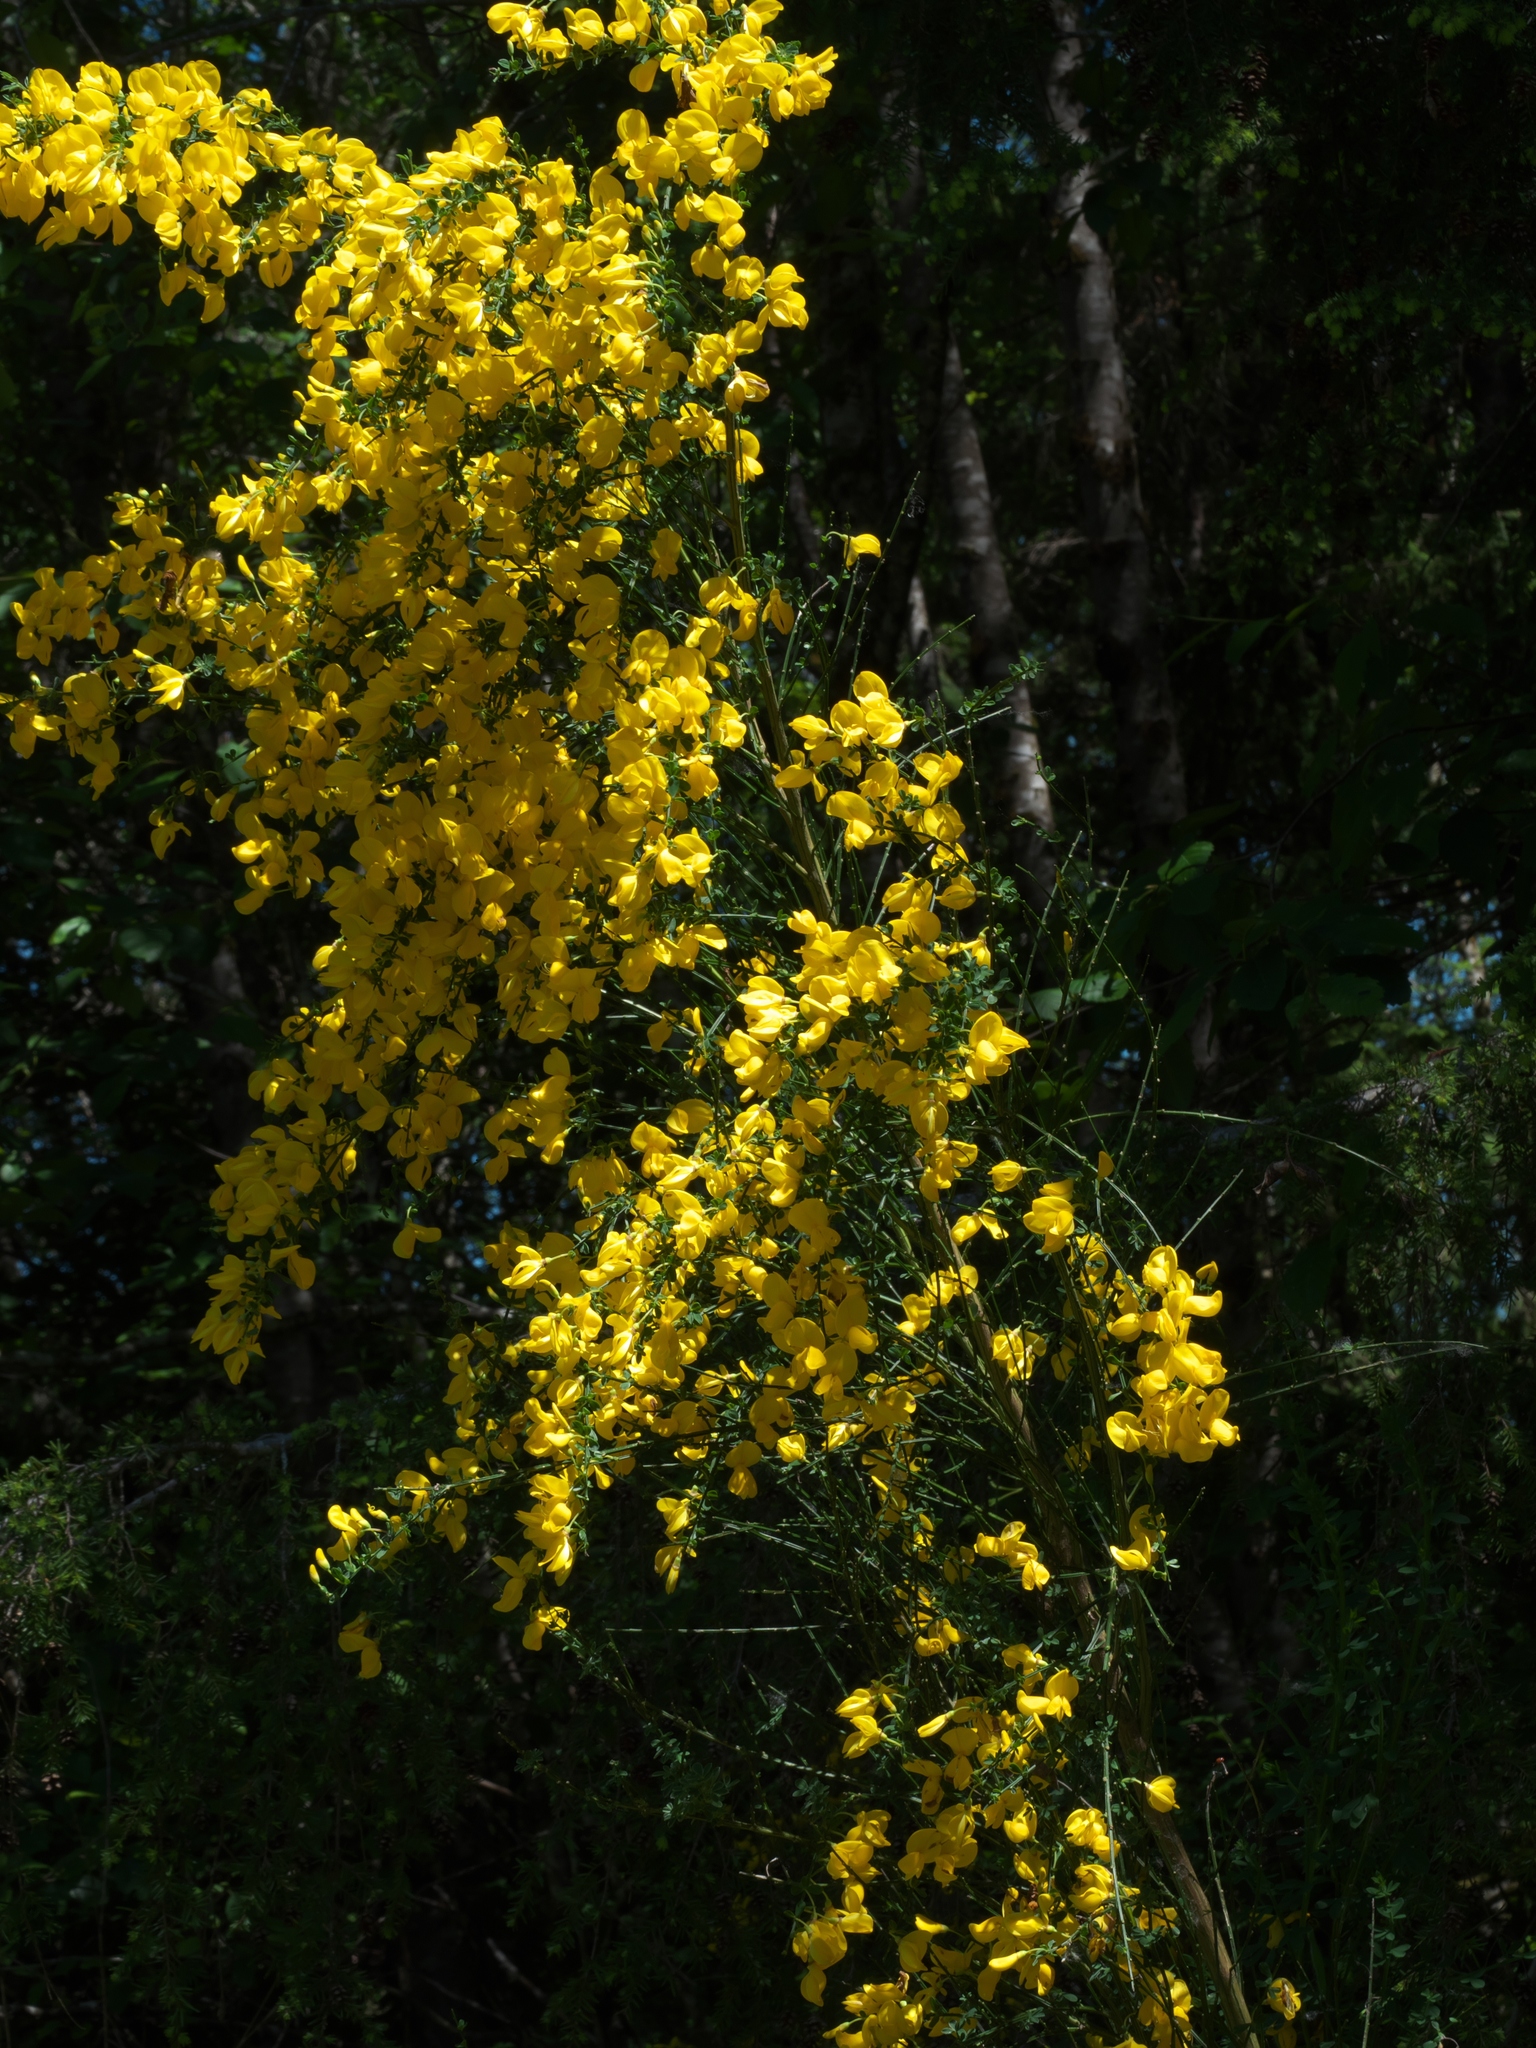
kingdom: Plantae
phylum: Tracheophyta
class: Magnoliopsida
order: Fabales
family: Fabaceae
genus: Cytisus
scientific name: Cytisus scoparius
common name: Scotch broom
